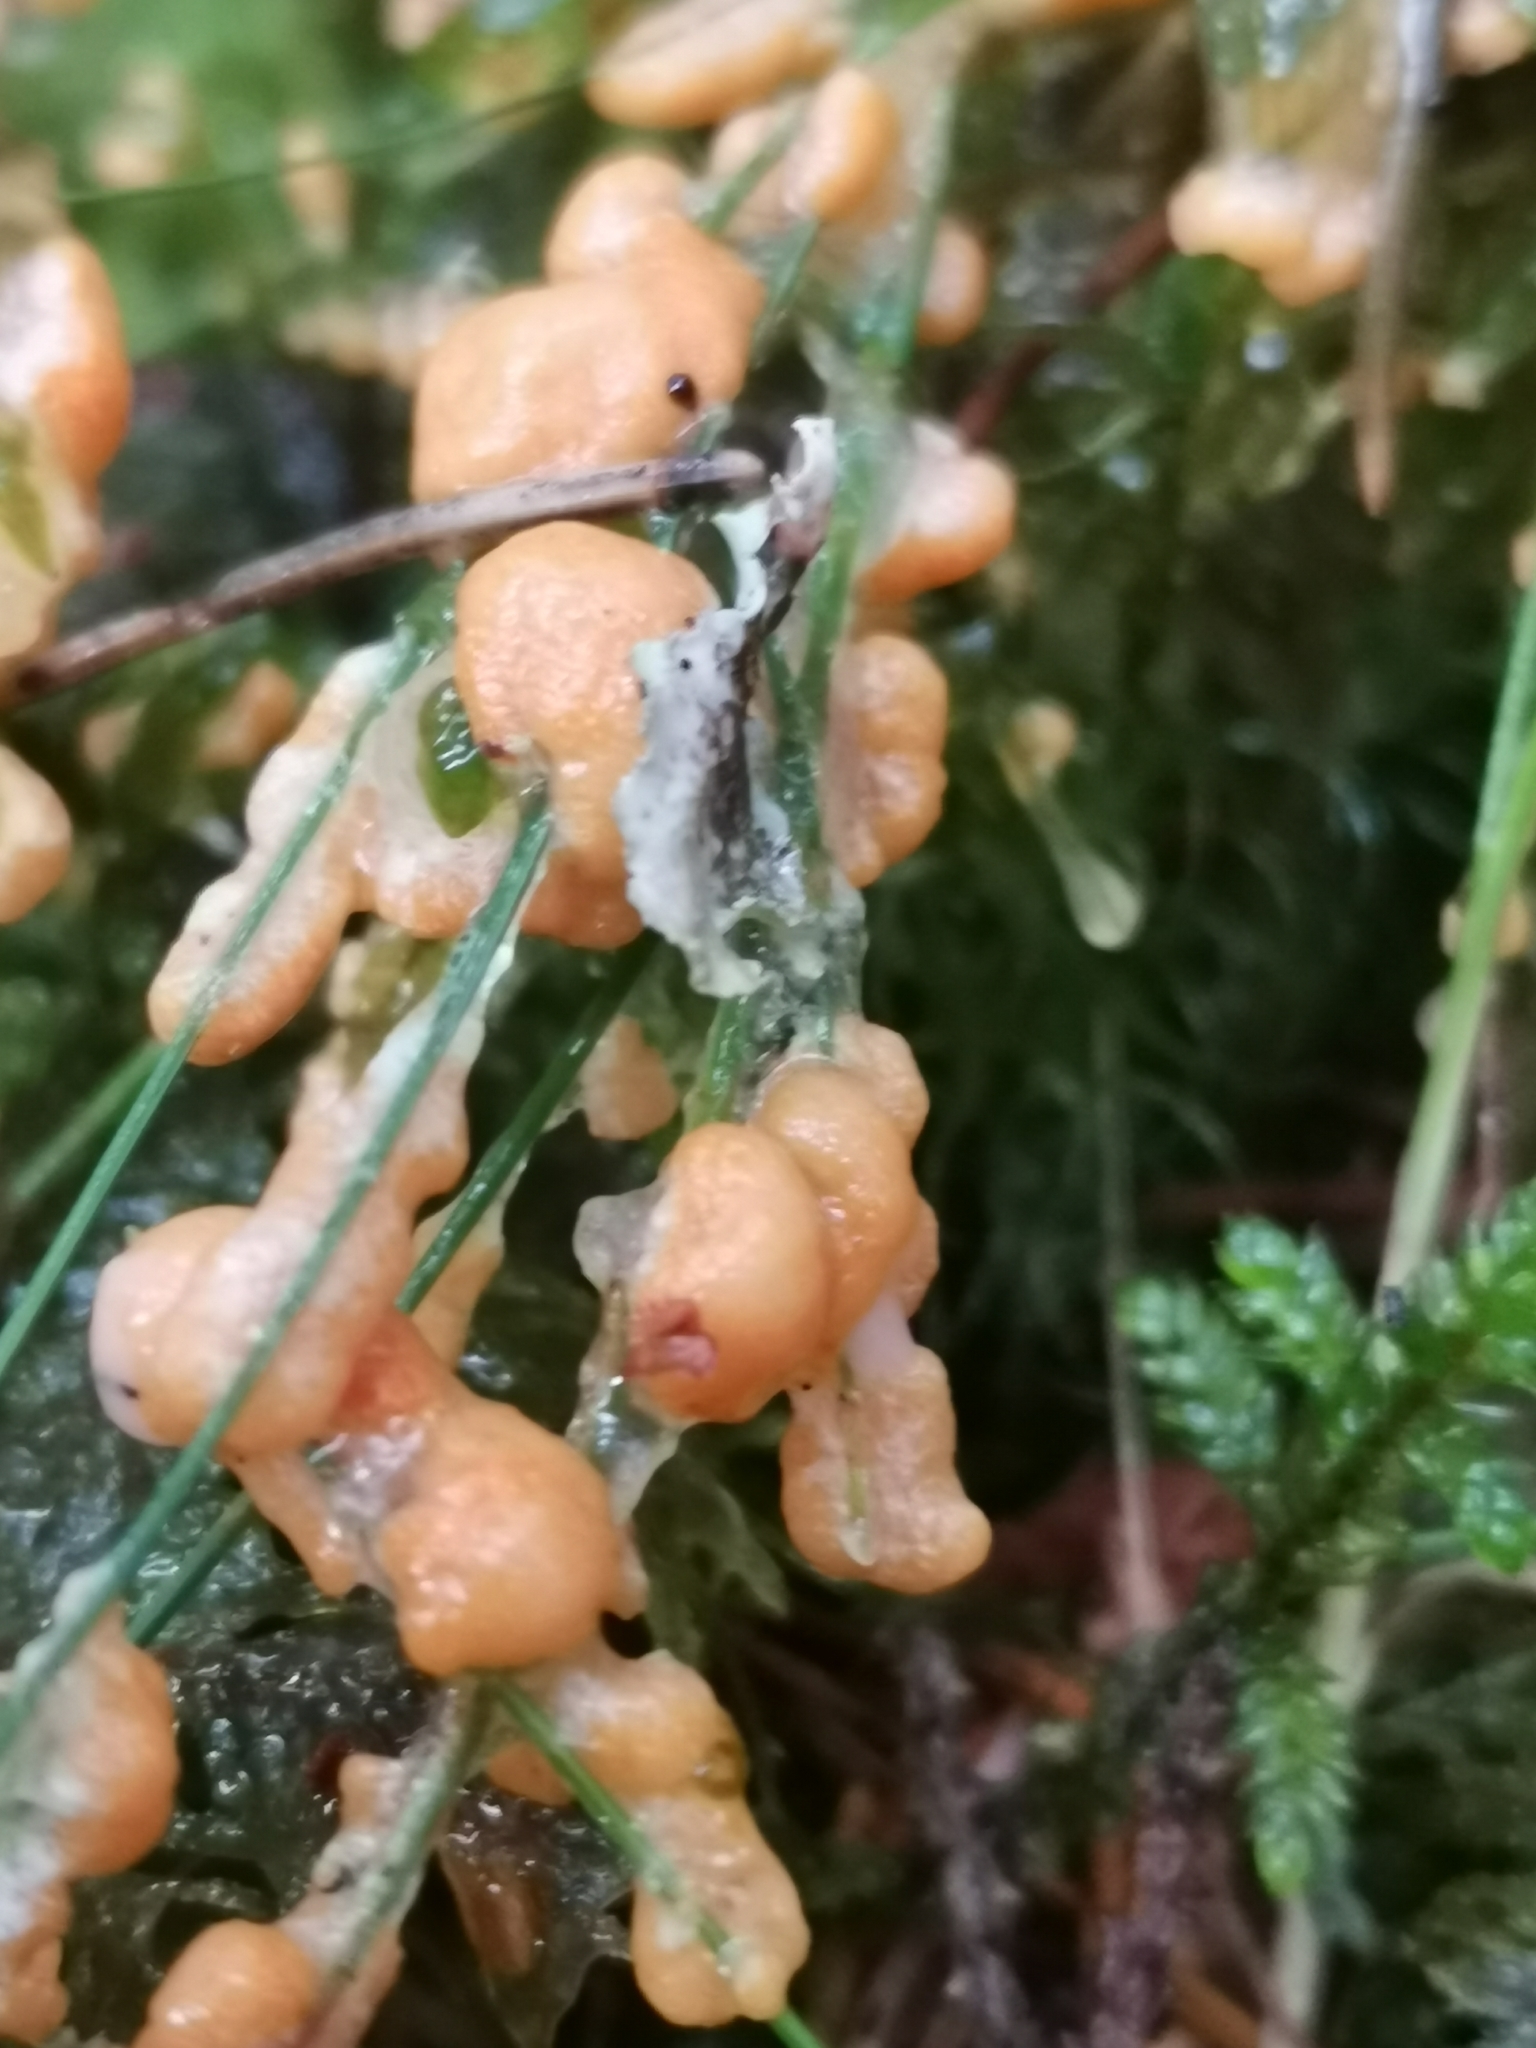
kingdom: Protozoa
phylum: Mycetozoa
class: Myxomycetes
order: Physarales
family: Physaraceae
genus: Fuligo
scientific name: Fuligo muscorum
